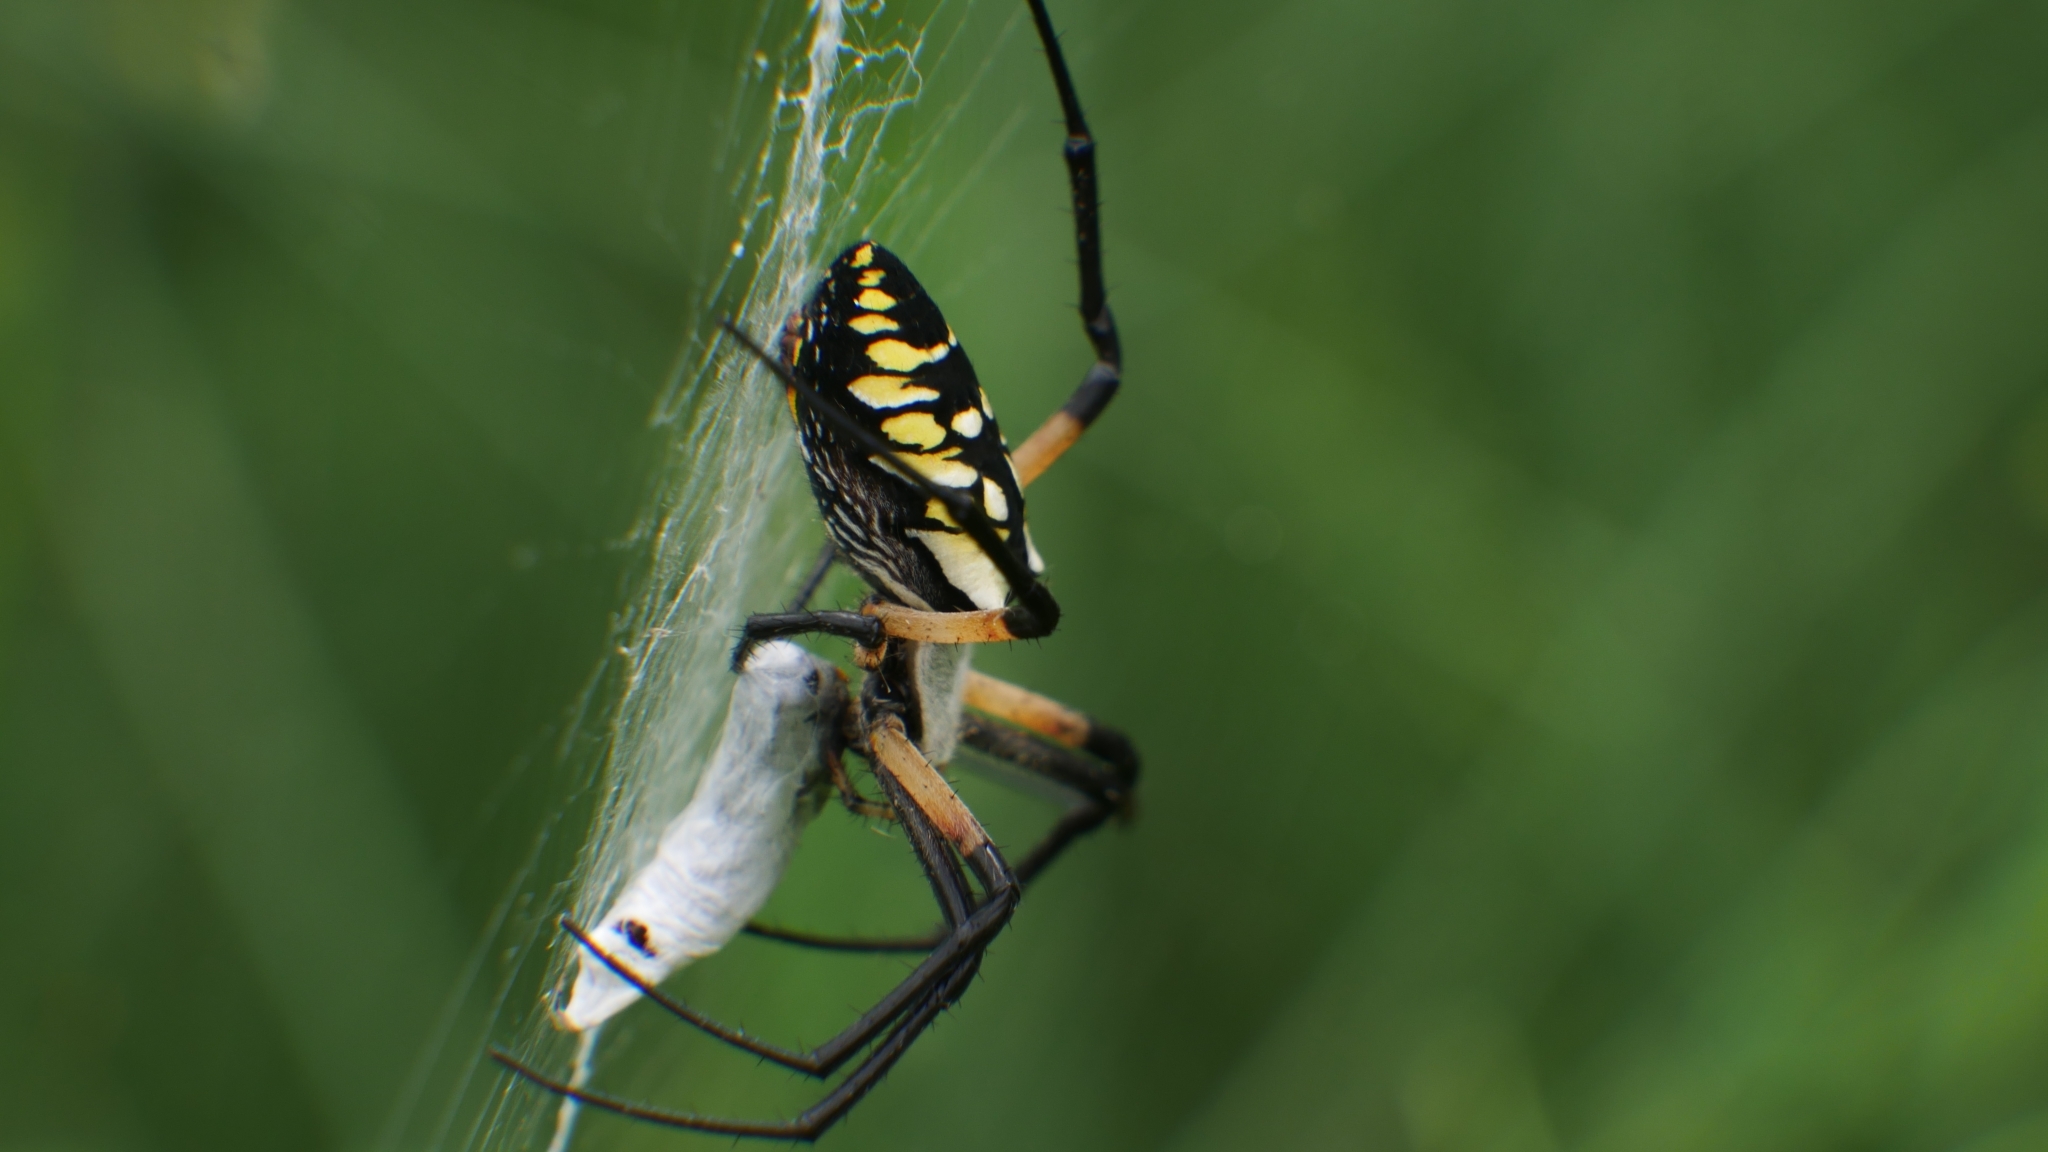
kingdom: Animalia
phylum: Arthropoda
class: Arachnida
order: Araneae
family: Araneidae
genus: Argiope
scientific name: Argiope aurantia
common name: Orb weavers
